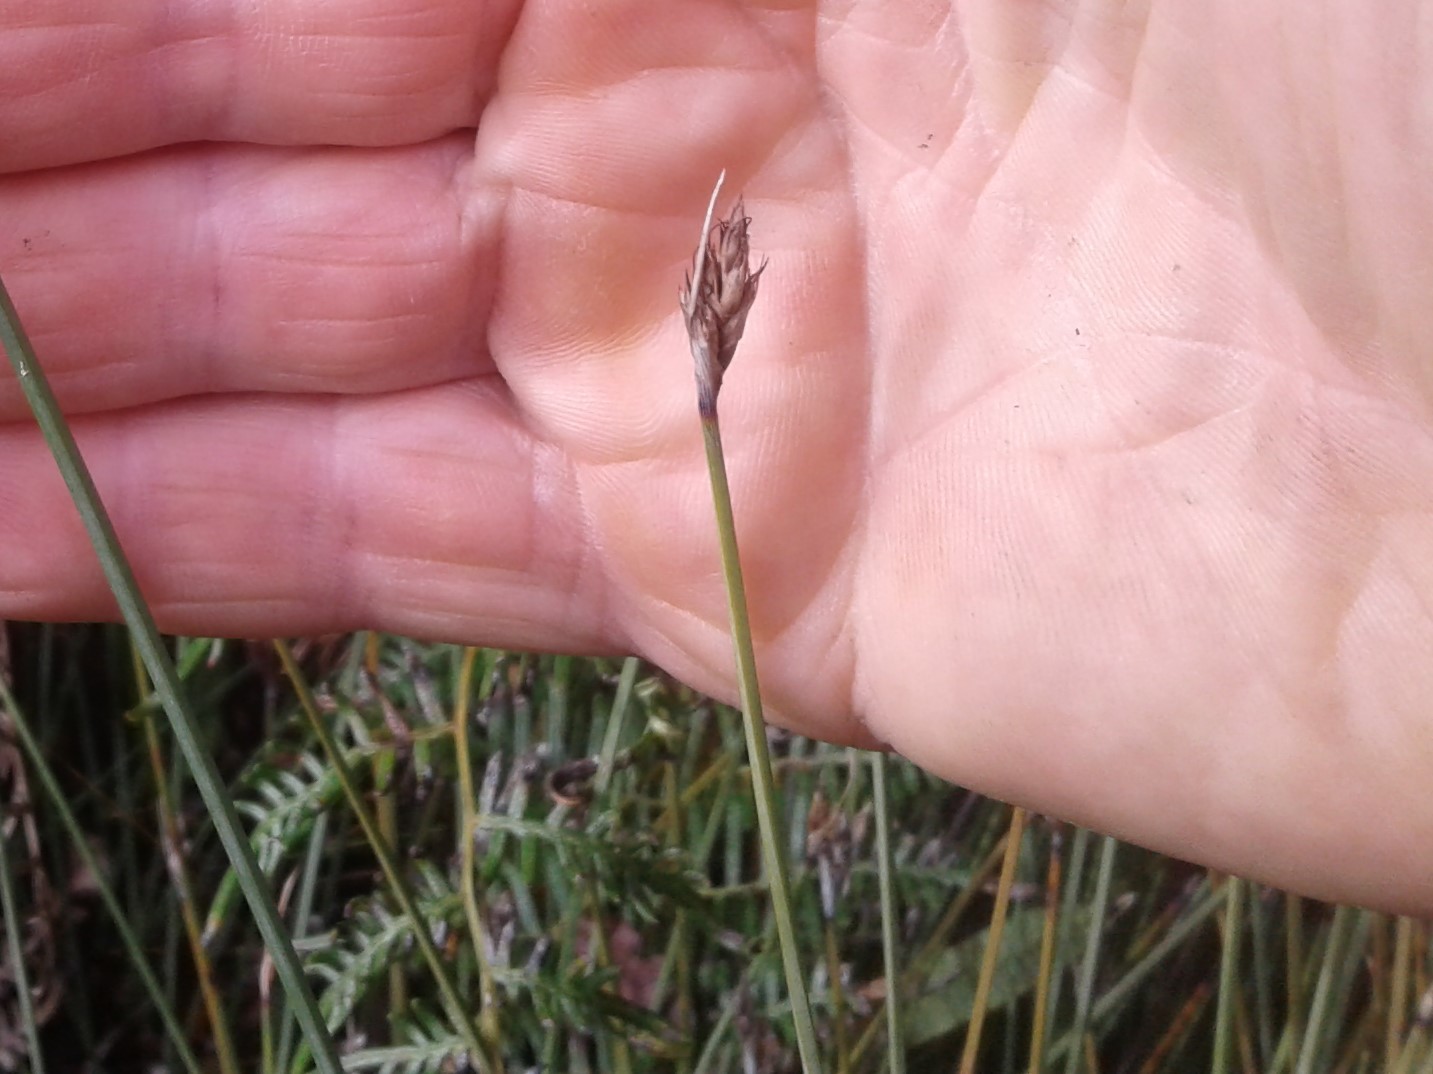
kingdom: Plantae
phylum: Tracheophyta
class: Liliopsida
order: Poales
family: Cyperaceae
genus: Lepidosperma
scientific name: Lepidosperma australe
